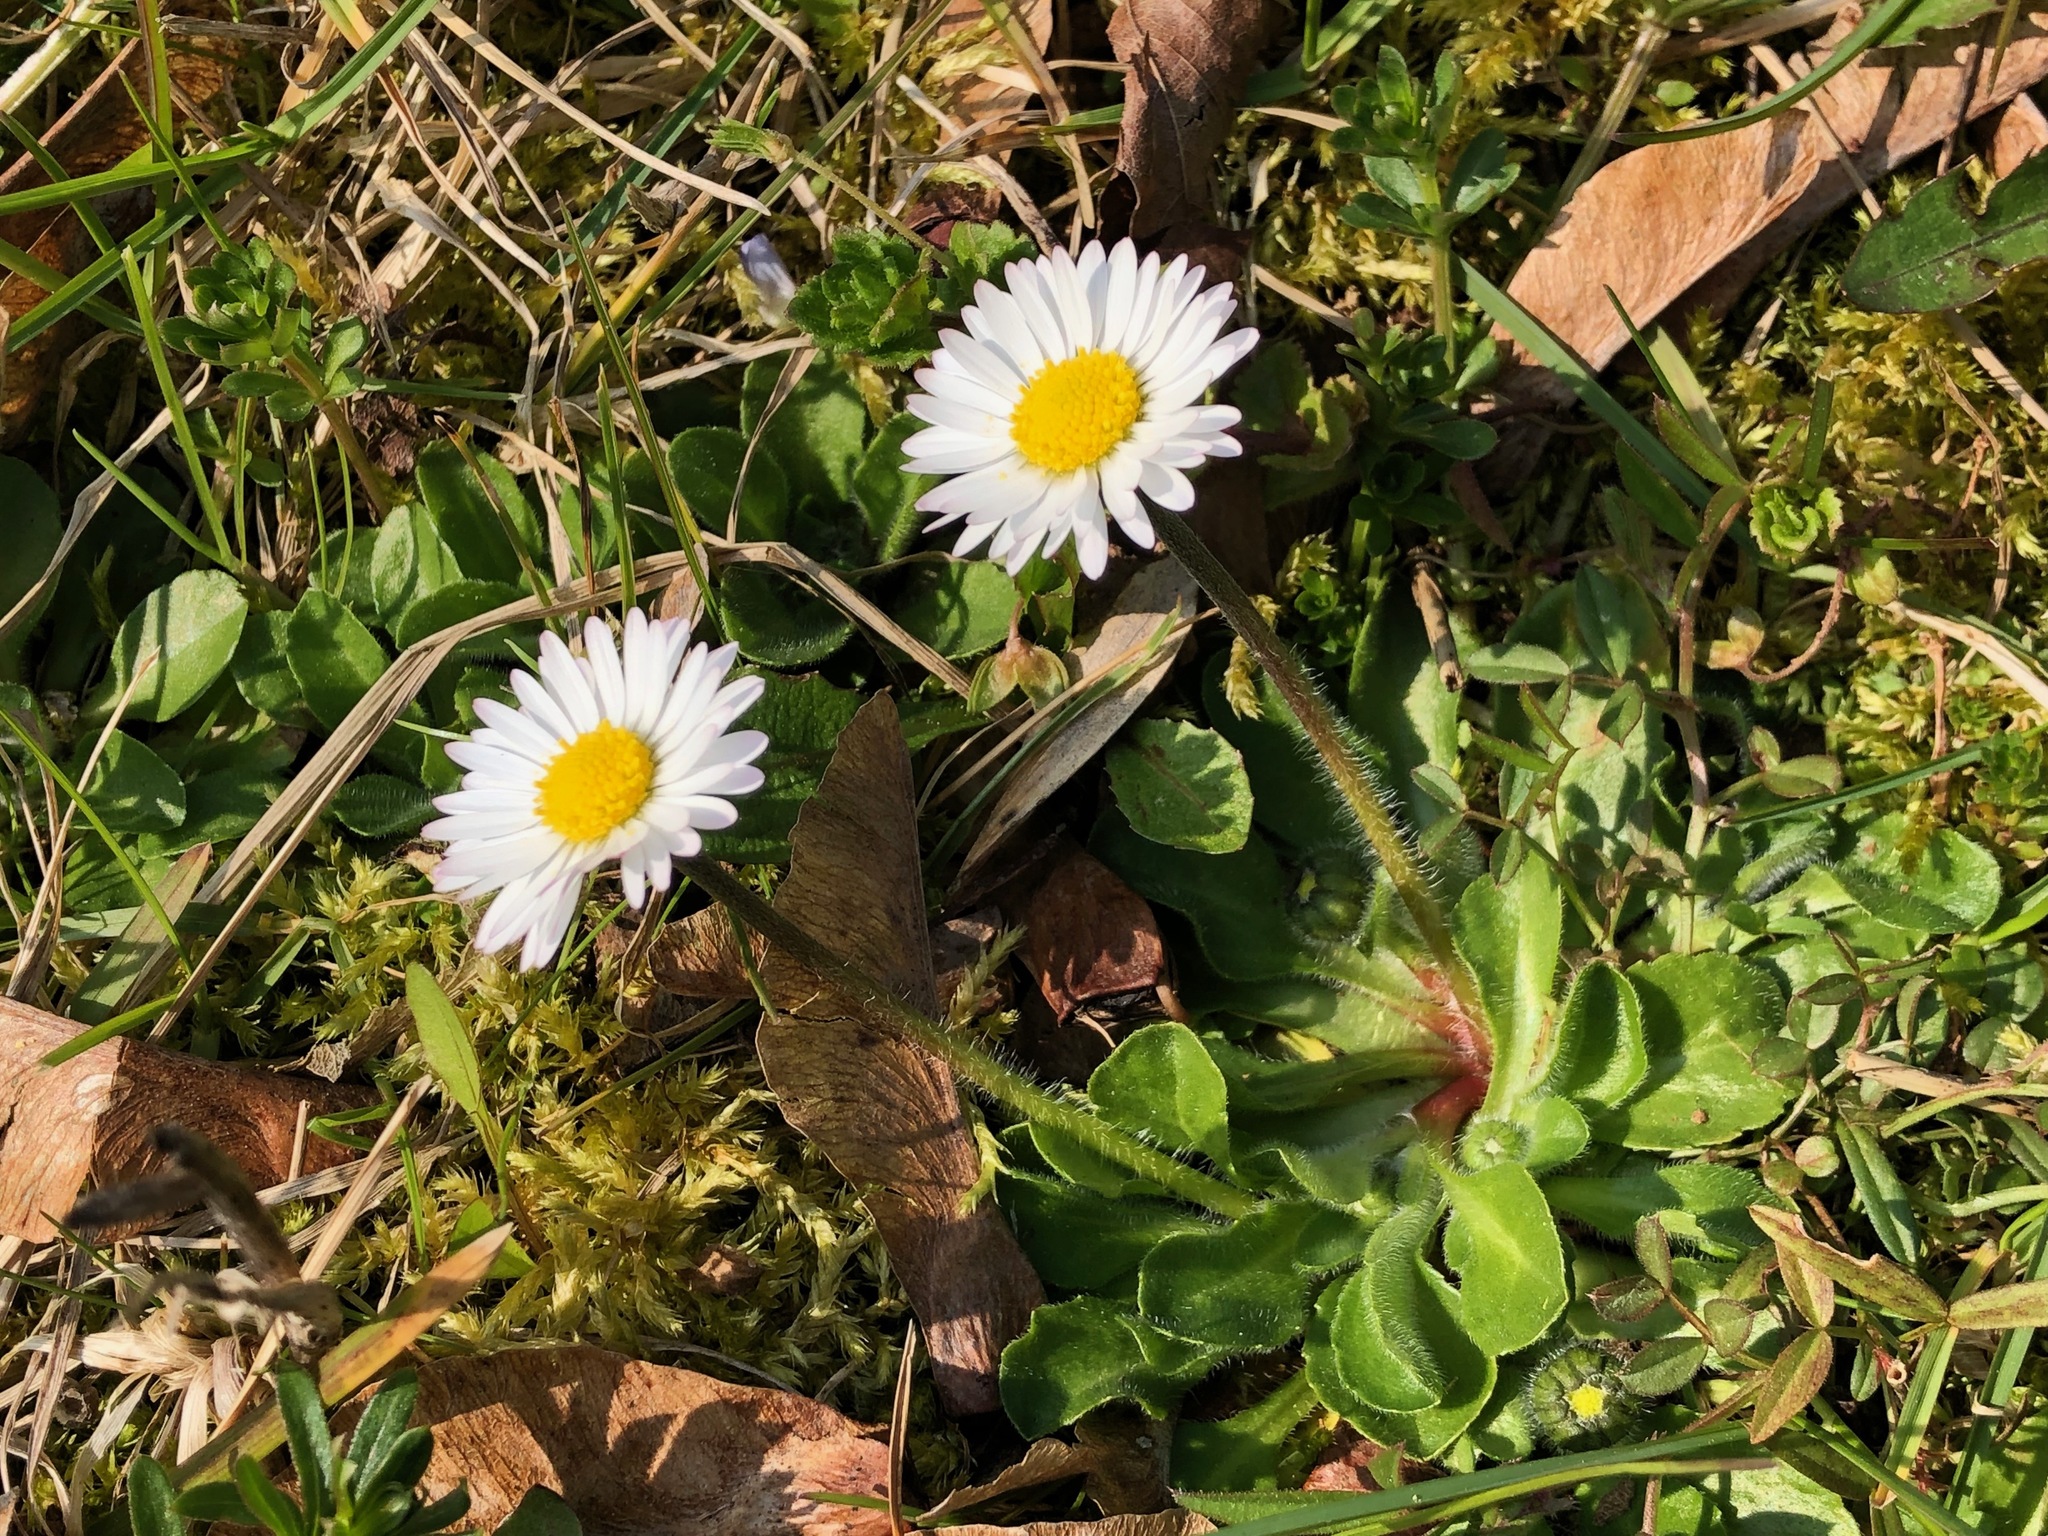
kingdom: Plantae
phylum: Tracheophyta
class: Magnoliopsida
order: Asterales
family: Asteraceae
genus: Bellis
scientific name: Bellis perennis
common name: Lawndaisy
